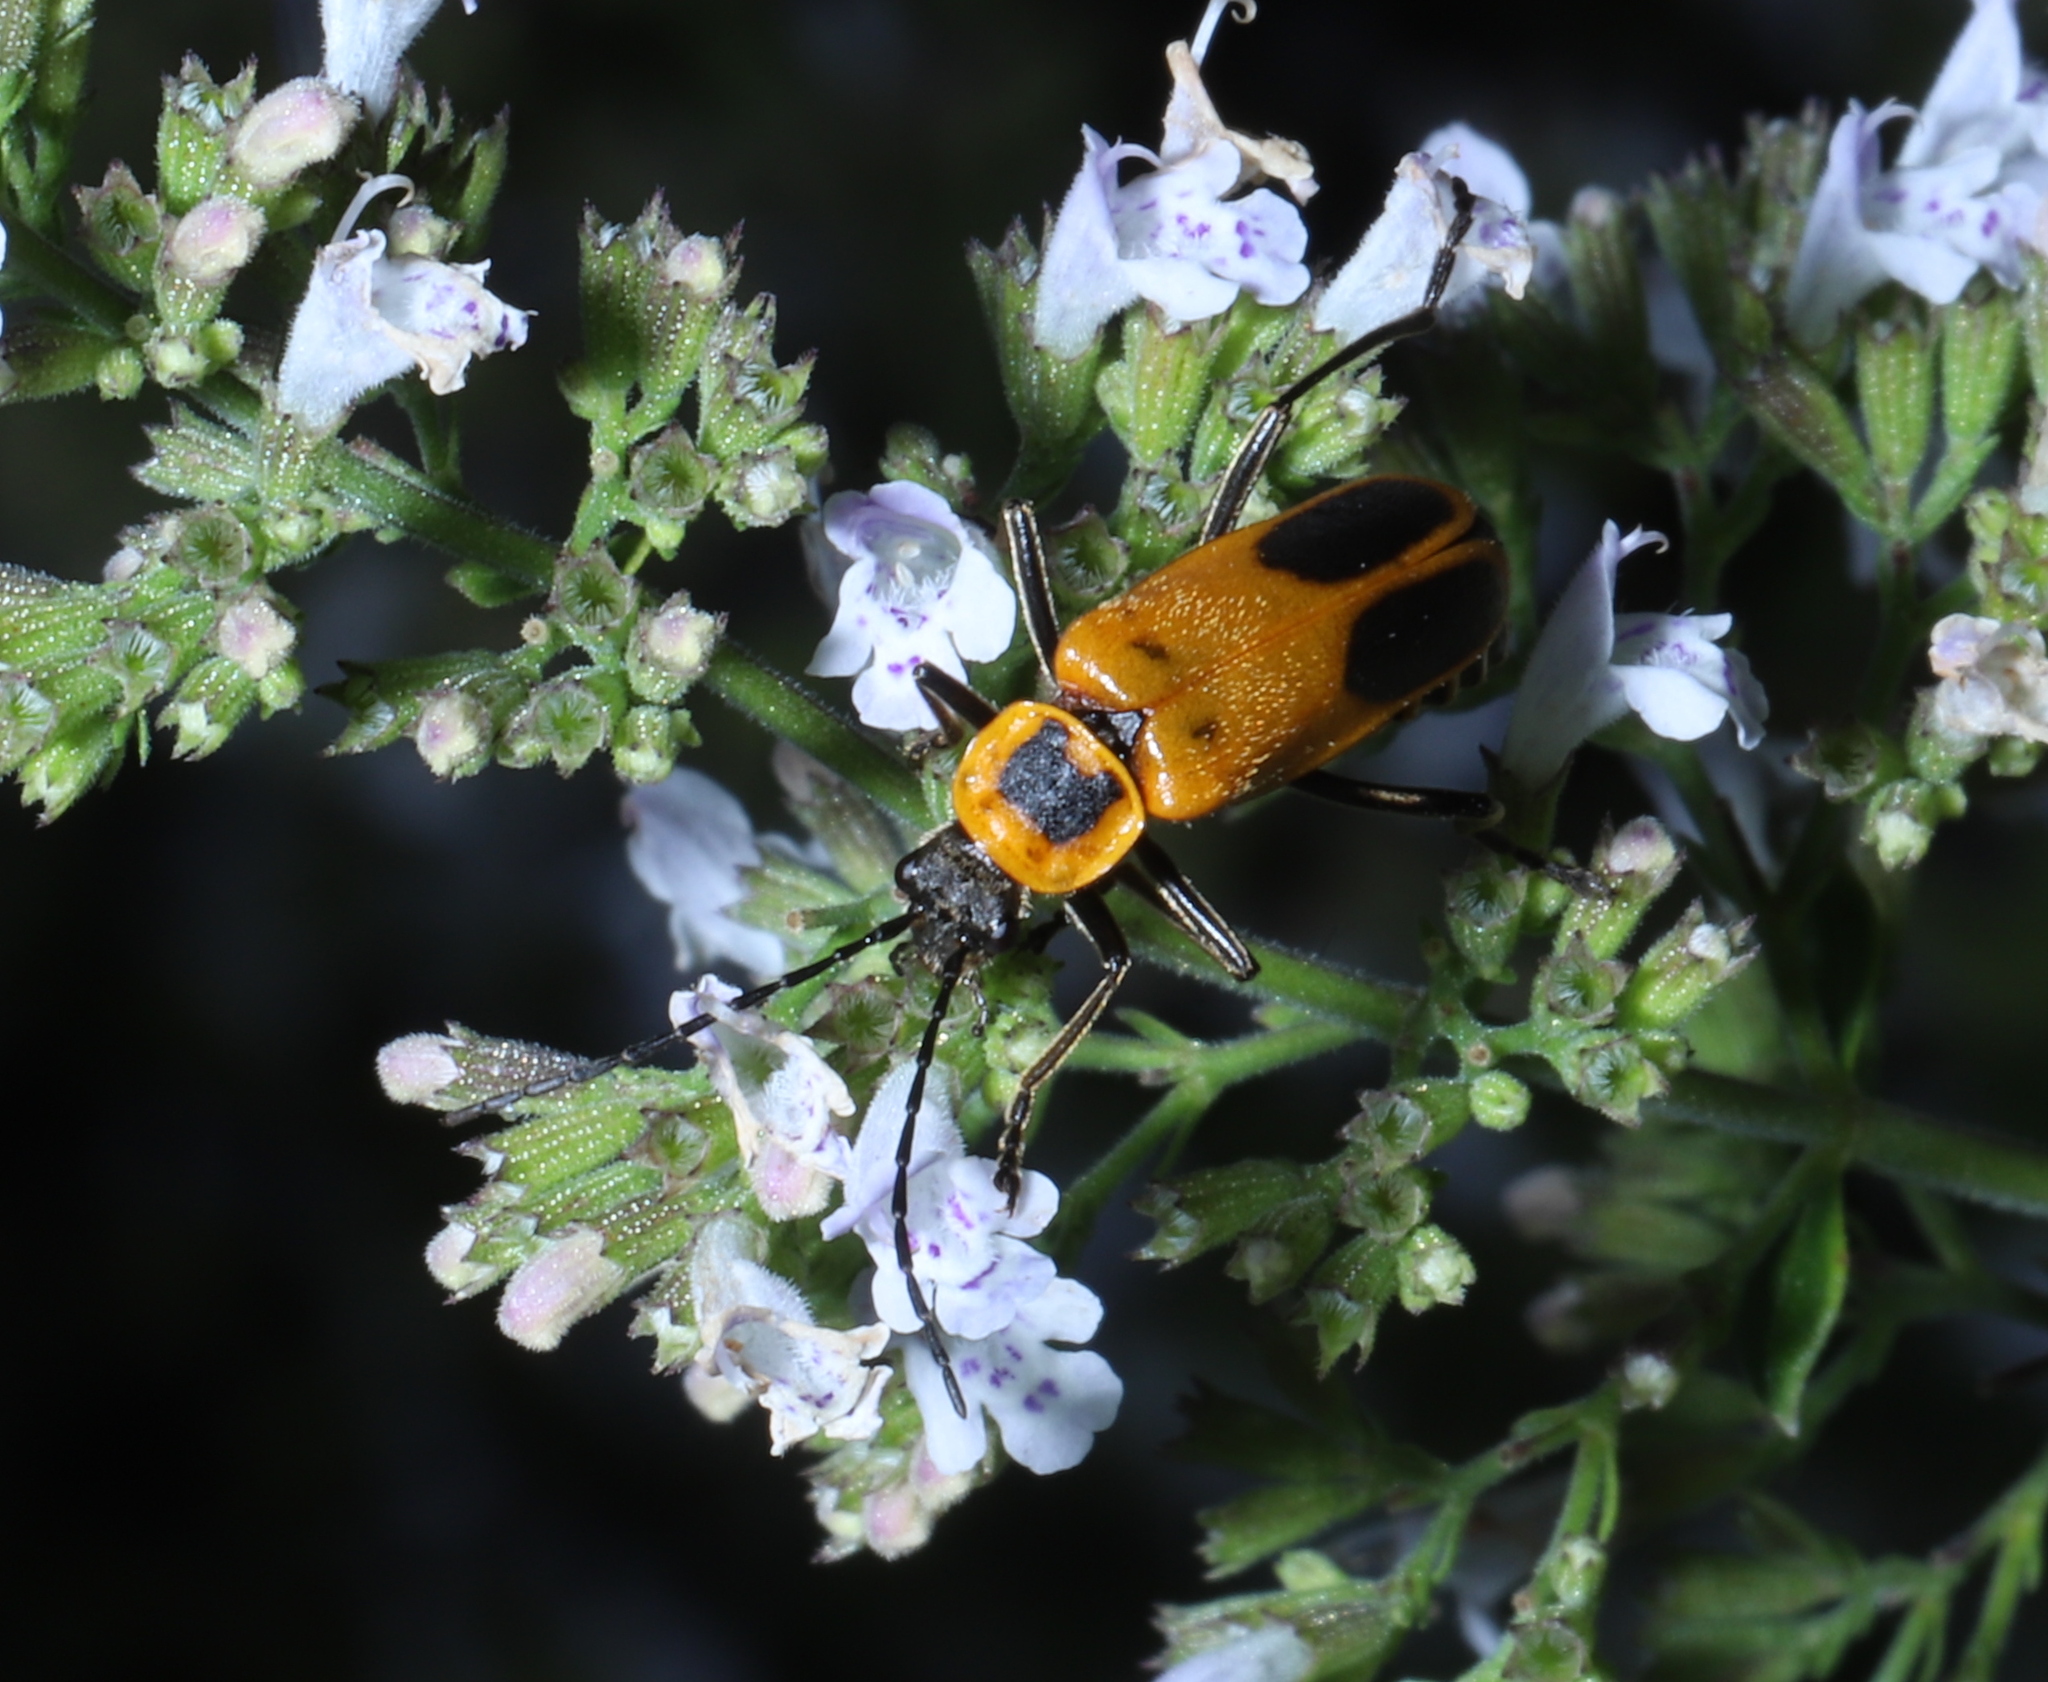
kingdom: Animalia
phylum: Arthropoda
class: Insecta
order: Coleoptera
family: Cantharidae
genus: Chauliognathus
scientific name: Chauliognathus pensylvanicus
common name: Goldenrod soldier beetle
